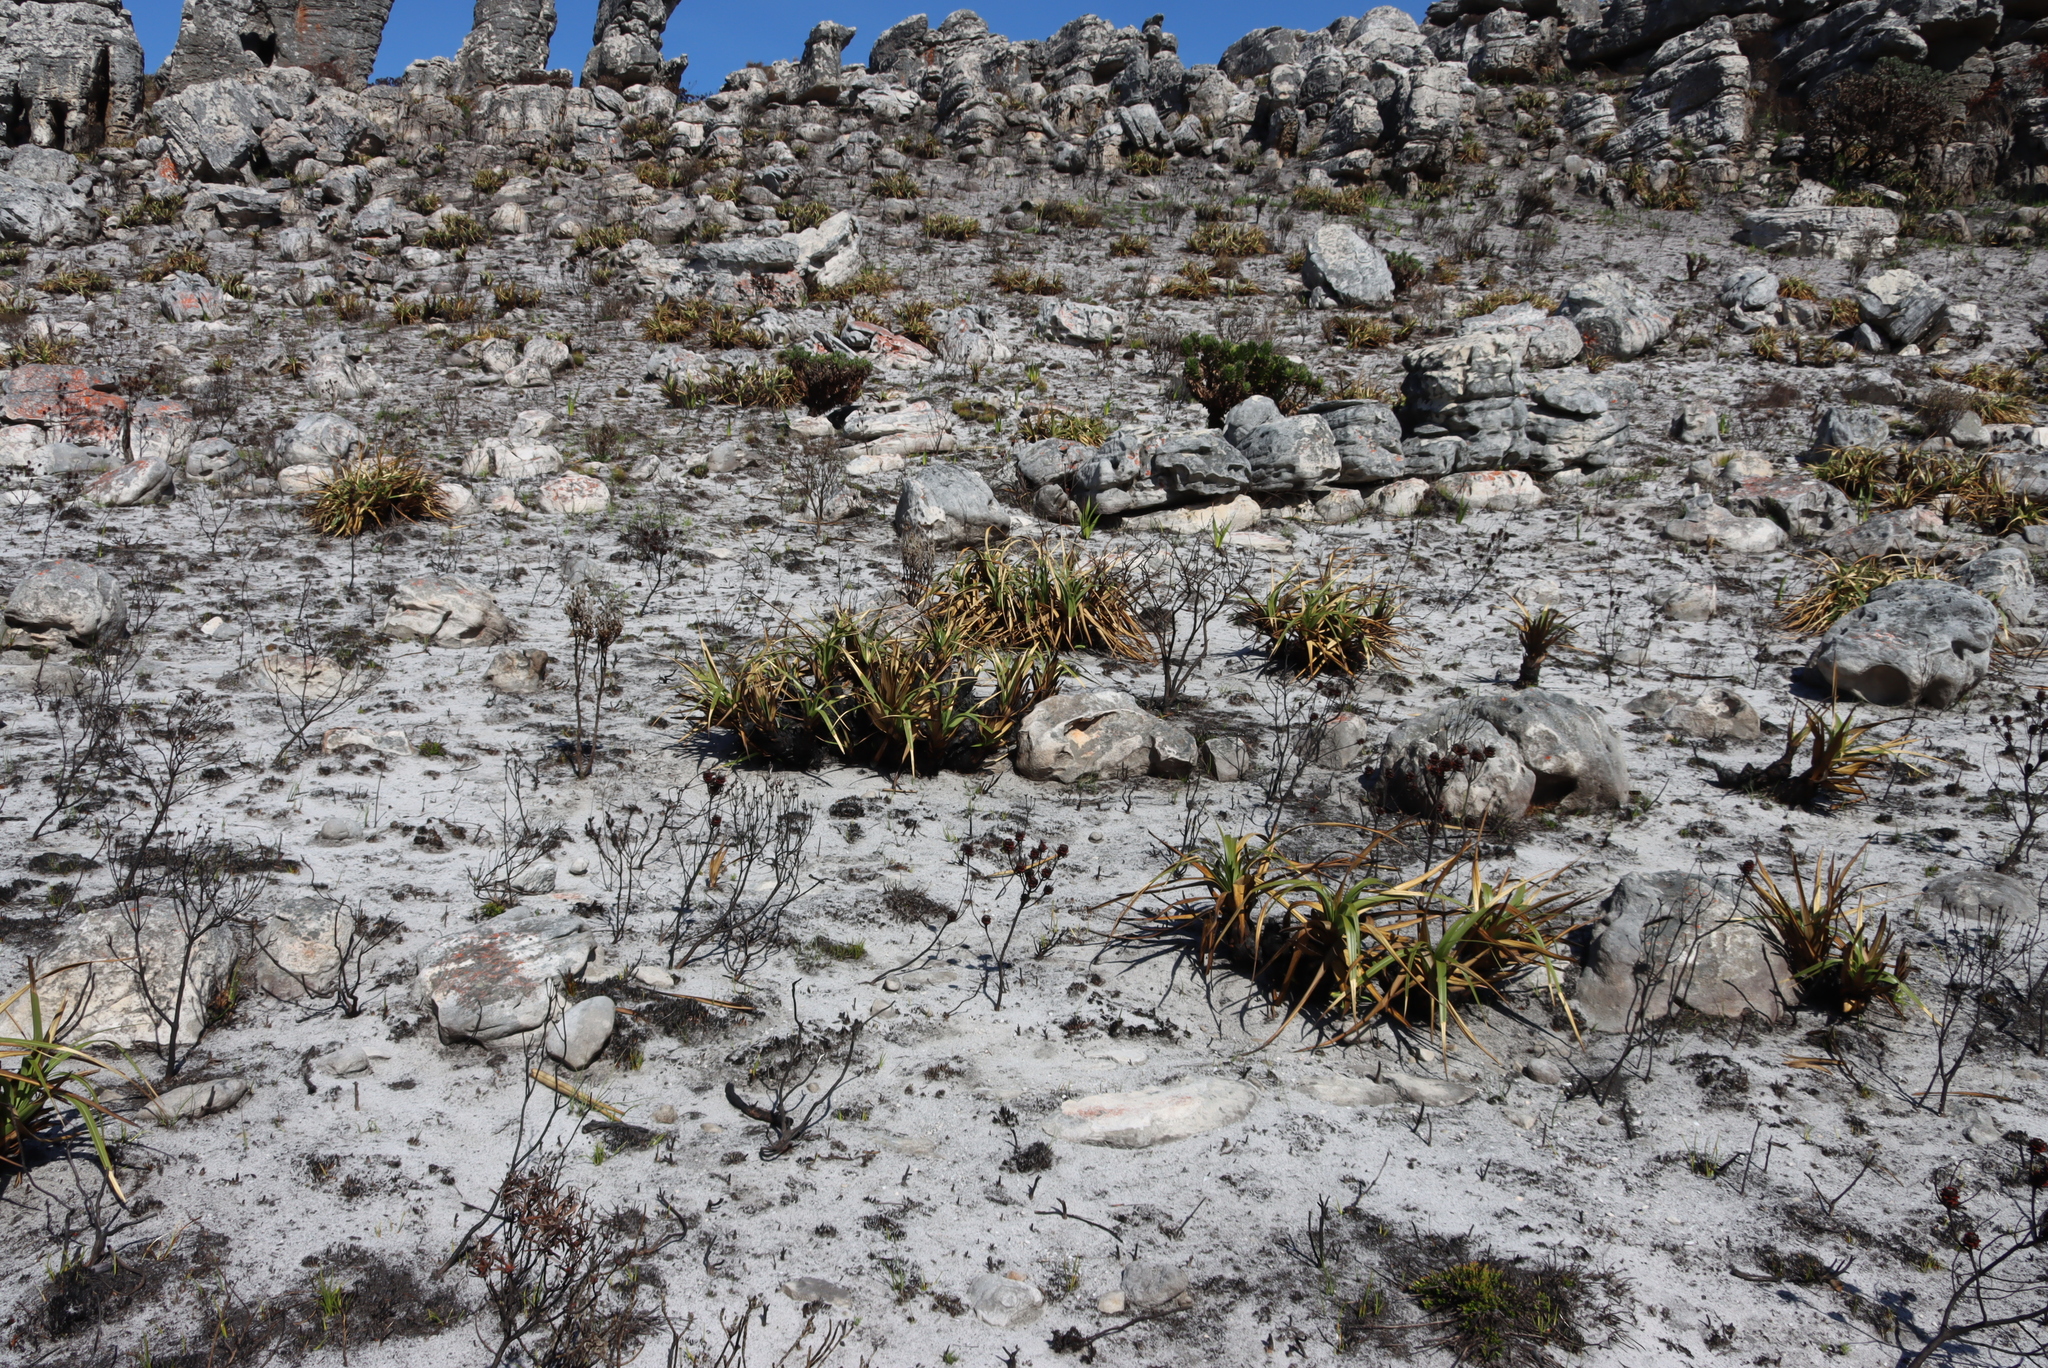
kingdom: Plantae
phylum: Tracheophyta
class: Liliopsida
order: Poales
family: Cyperaceae
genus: Tetraria
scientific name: Tetraria thermalis
